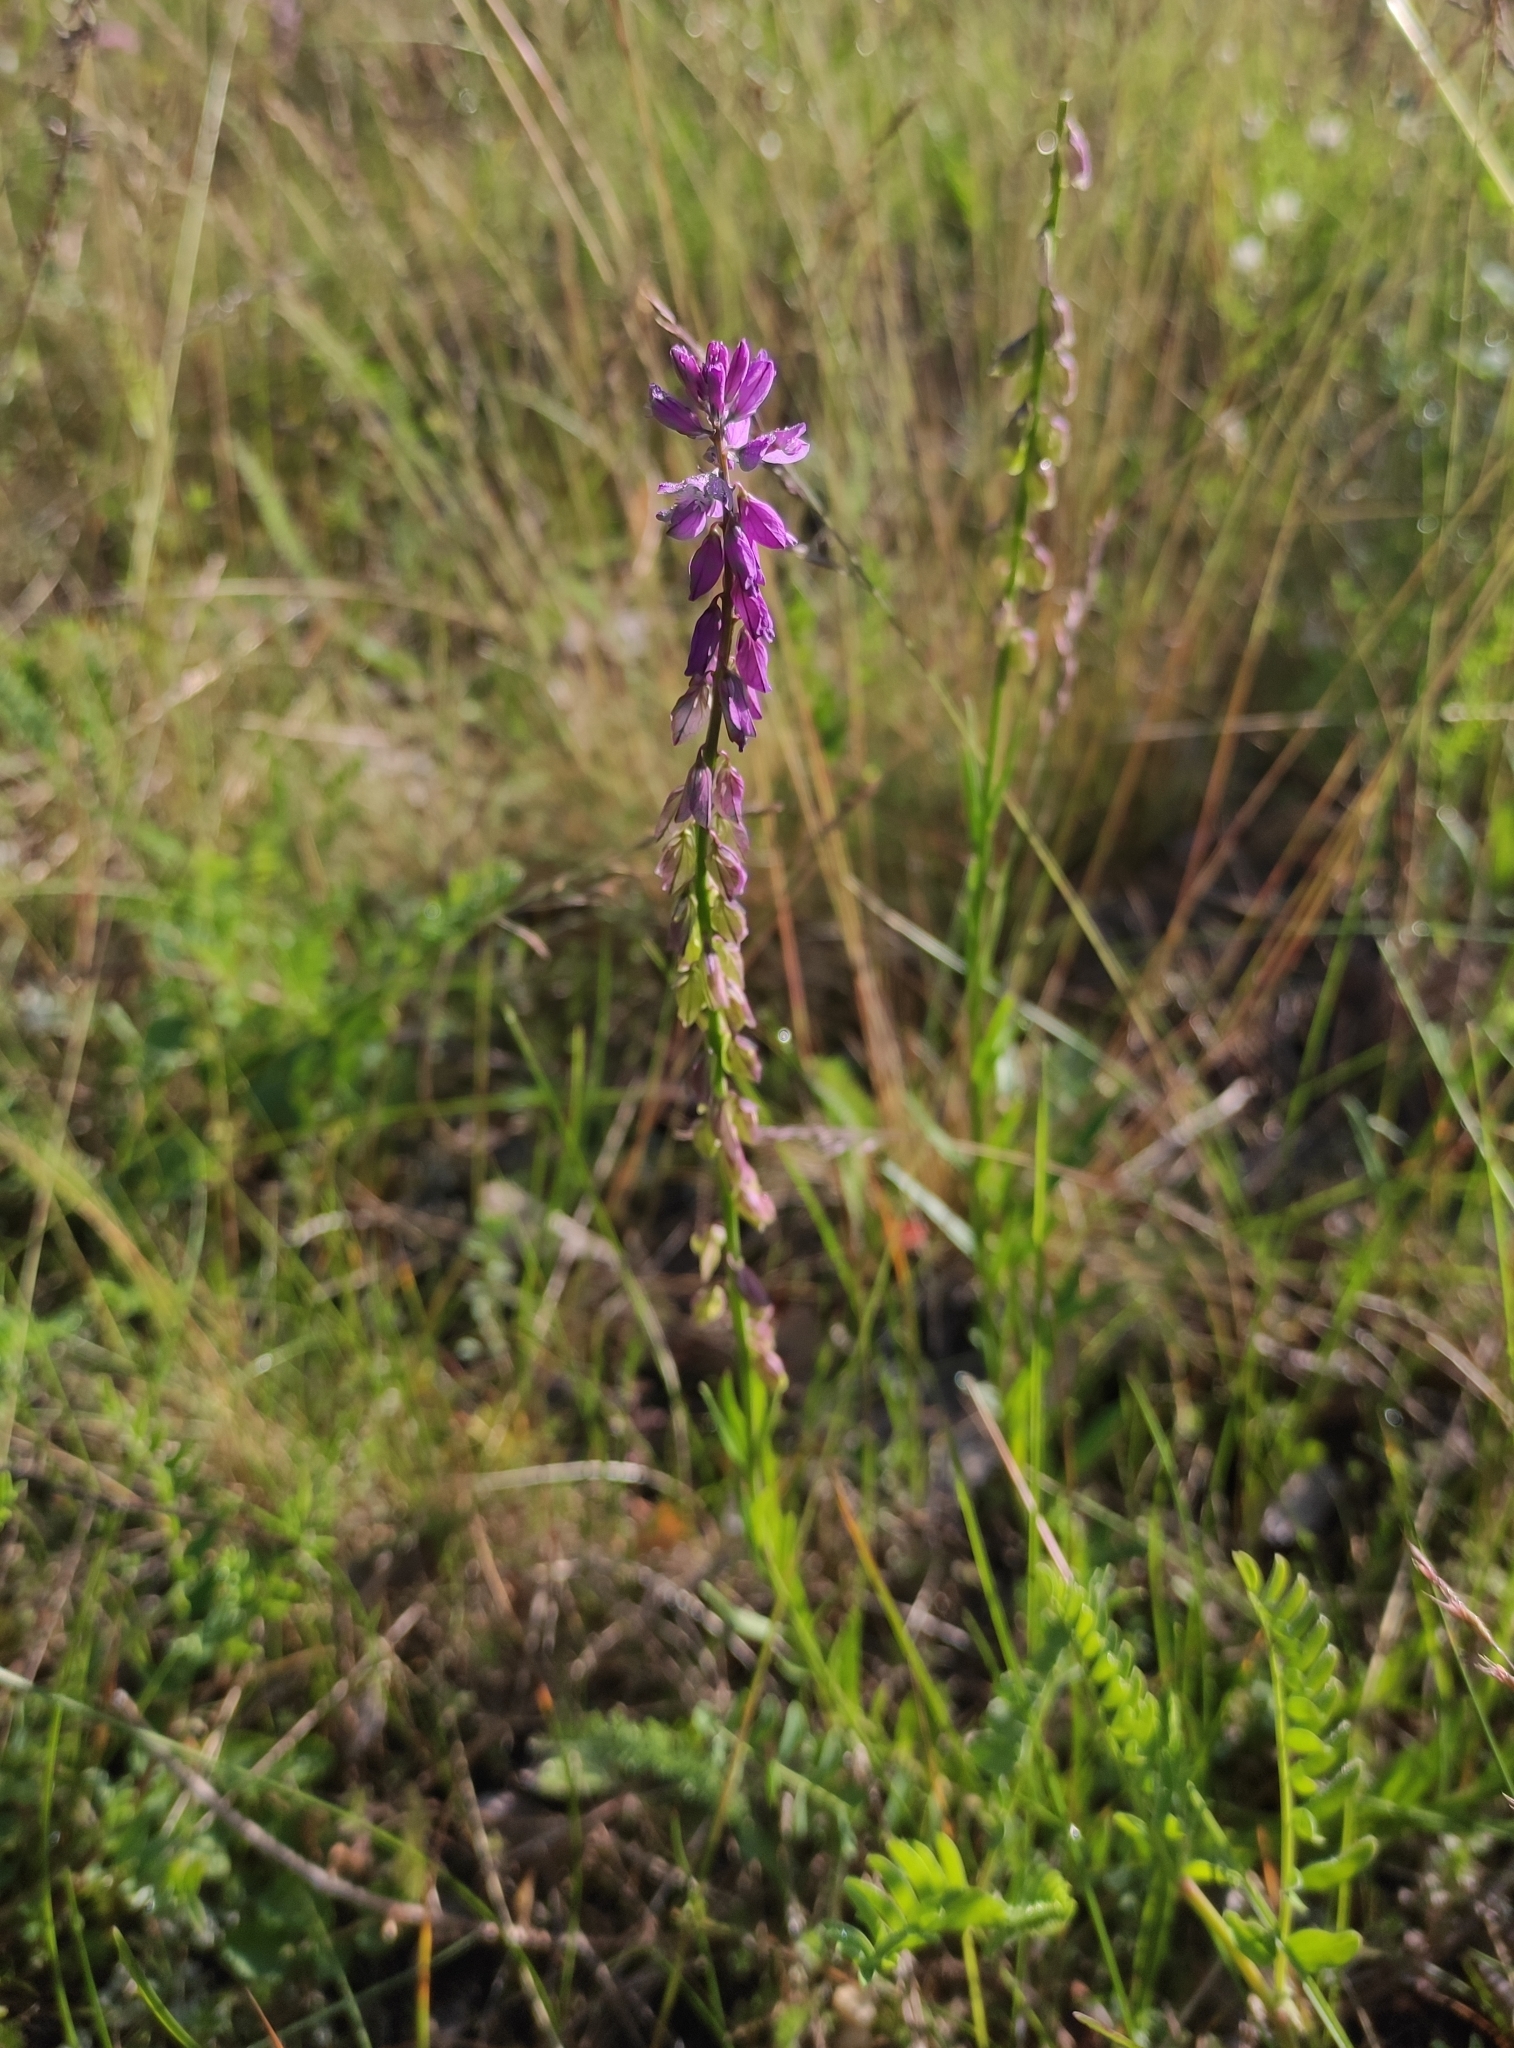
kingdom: Plantae
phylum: Tracheophyta
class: Magnoliopsida
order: Fabales
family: Polygalaceae
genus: Polygala
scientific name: Polygala comosa
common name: Tufted milkwort
